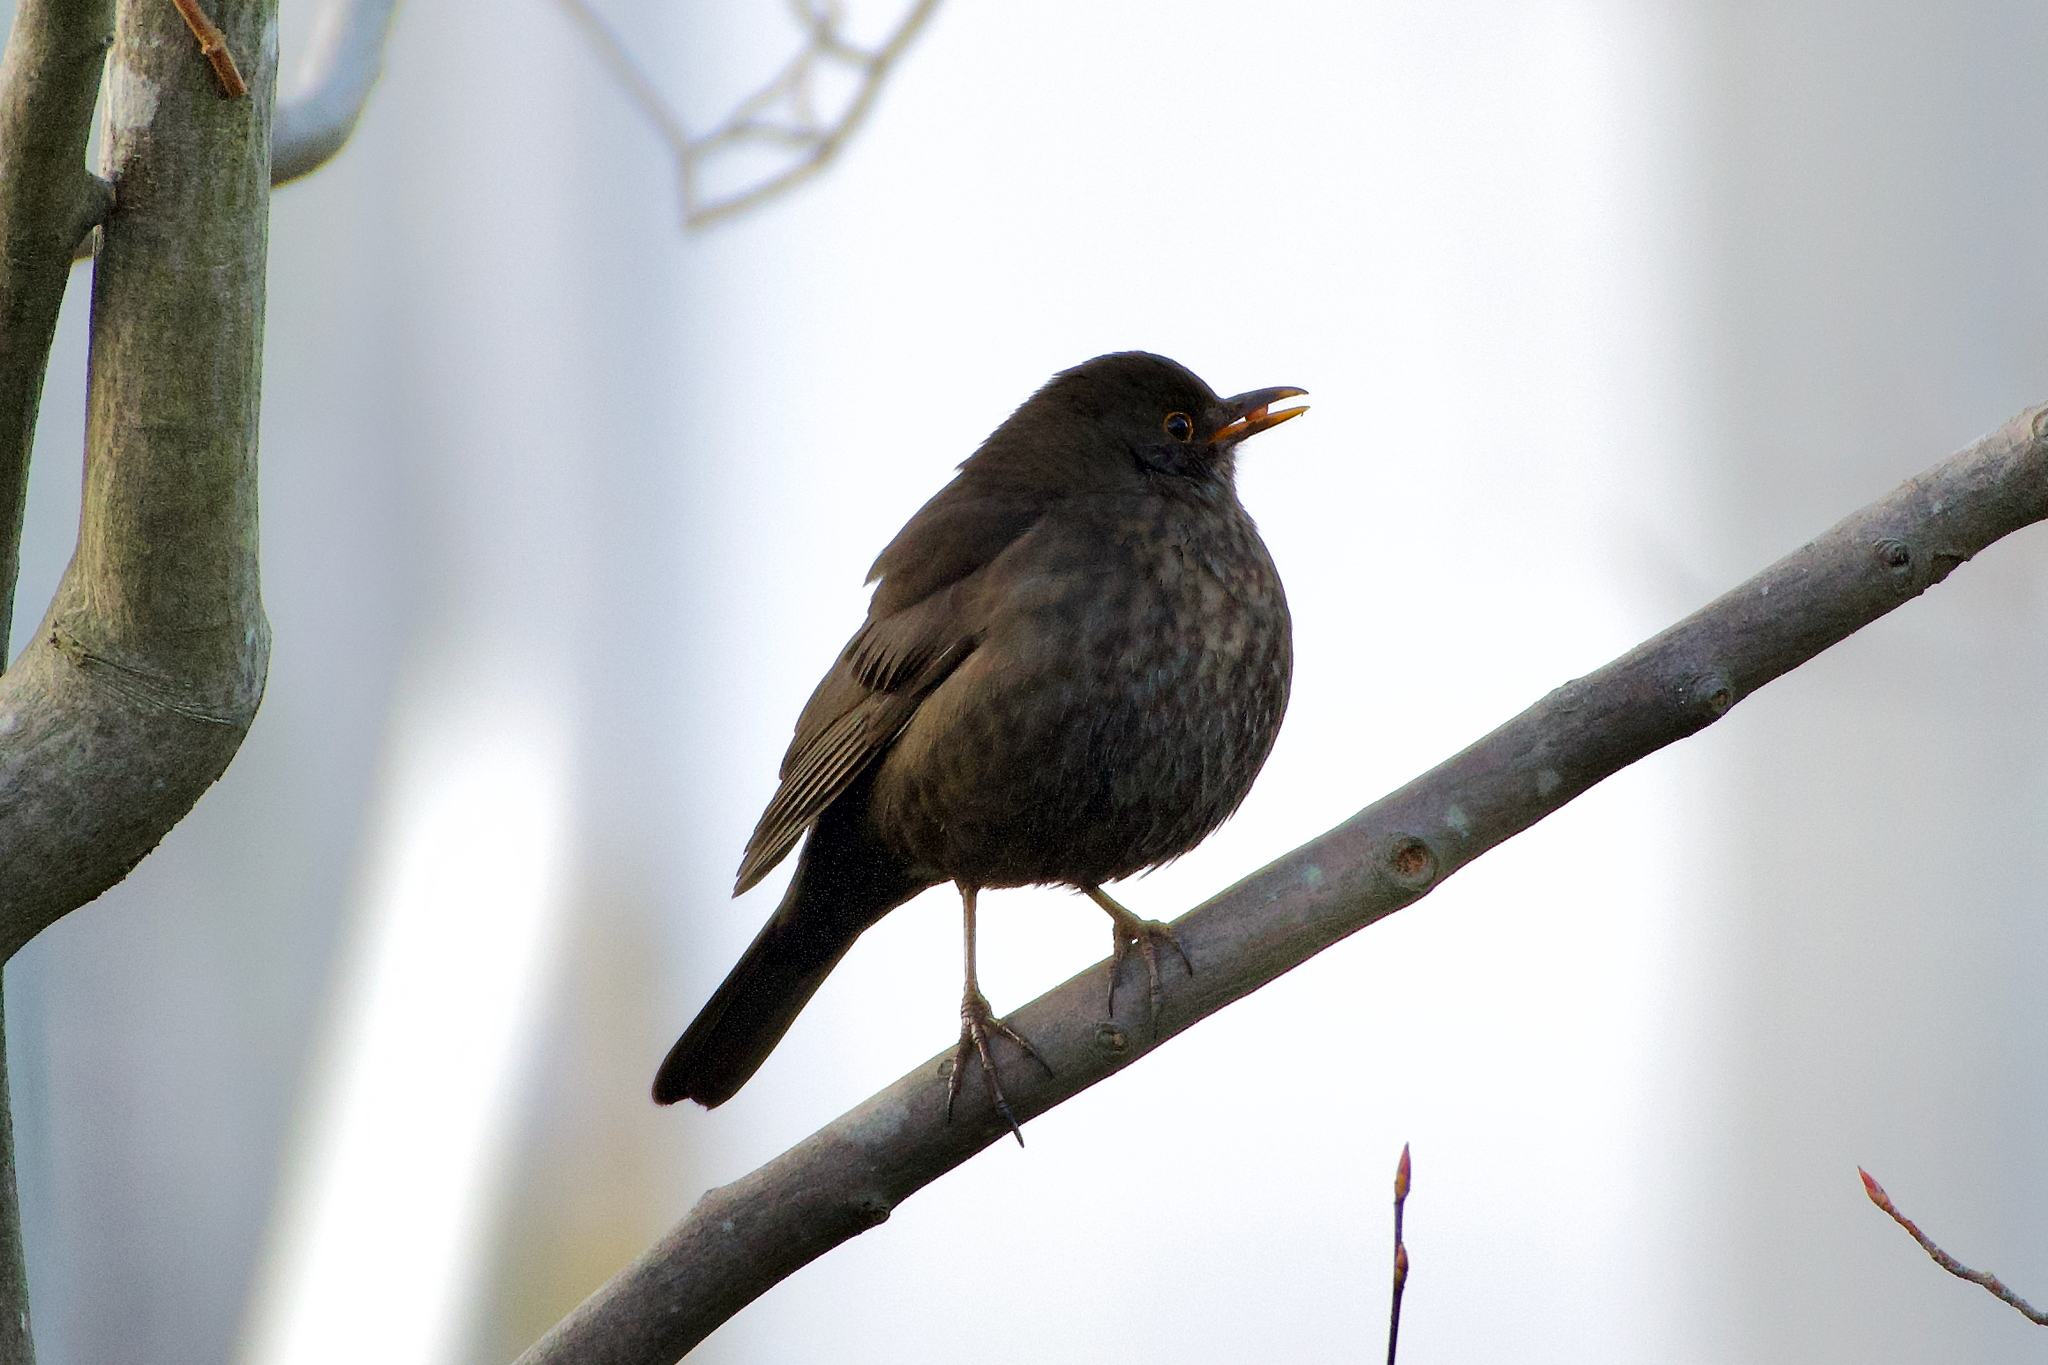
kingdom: Animalia
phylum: Chordata
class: Aves
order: Passeriformes
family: Turdidae
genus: Turdus
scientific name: Turdus merula
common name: Common blackbird
